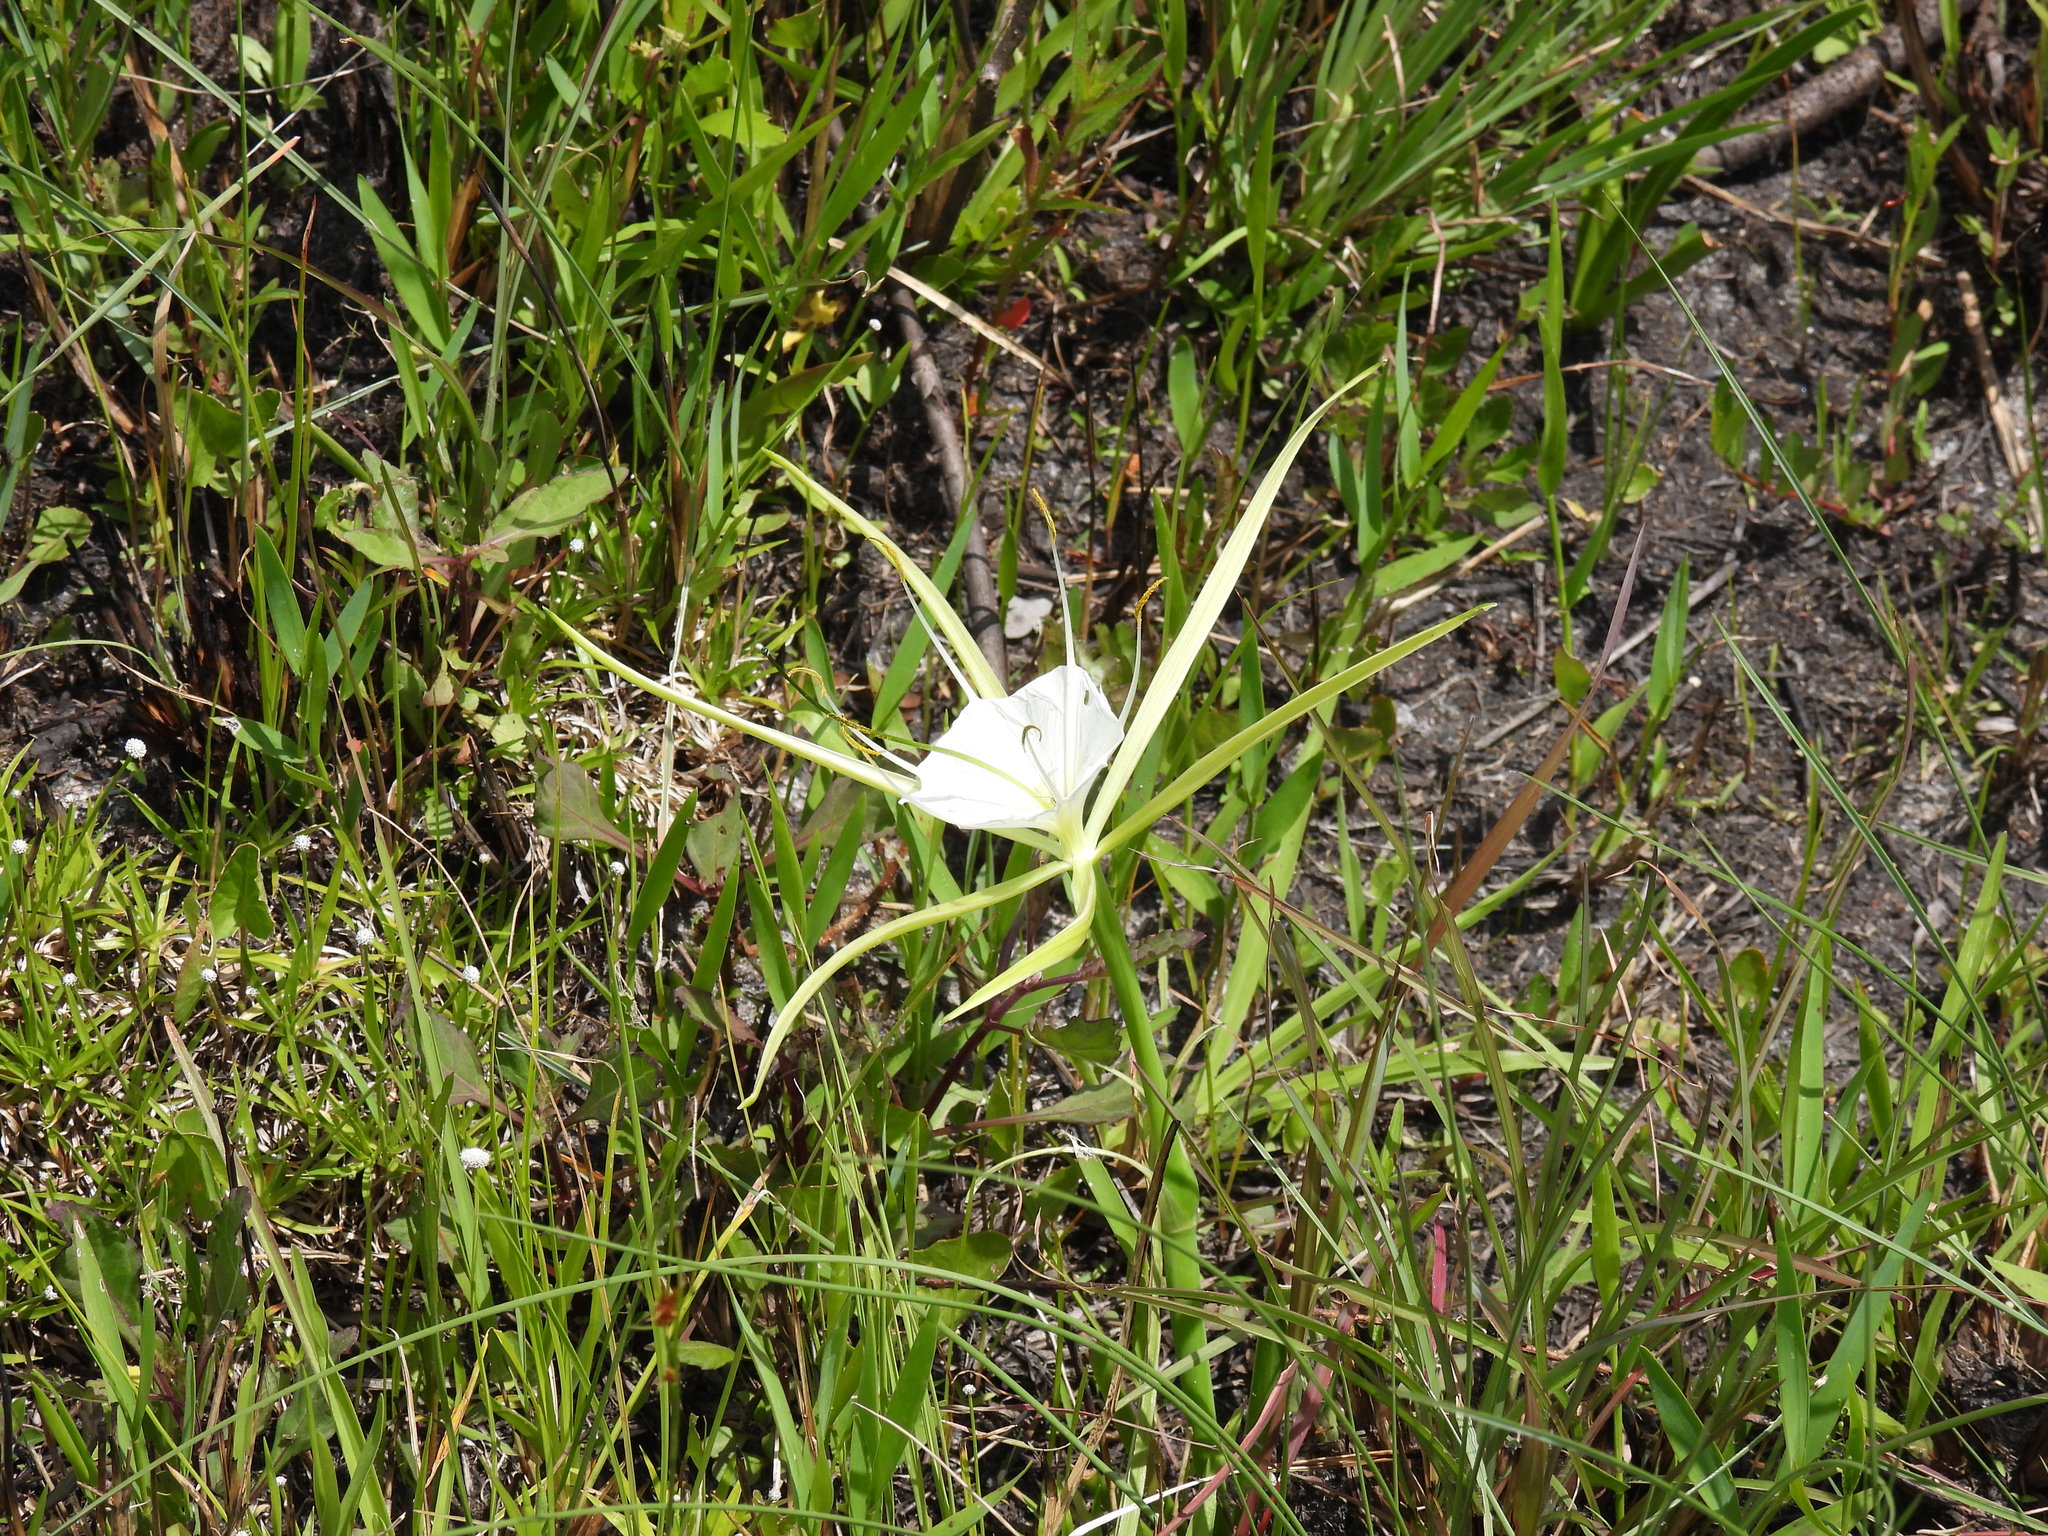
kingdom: Plantae
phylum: Tracheophyta
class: Liliopsida
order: Asparagales
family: Amaryllidaceae
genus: Hymenocallis
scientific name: Hymenocallis palmeri
